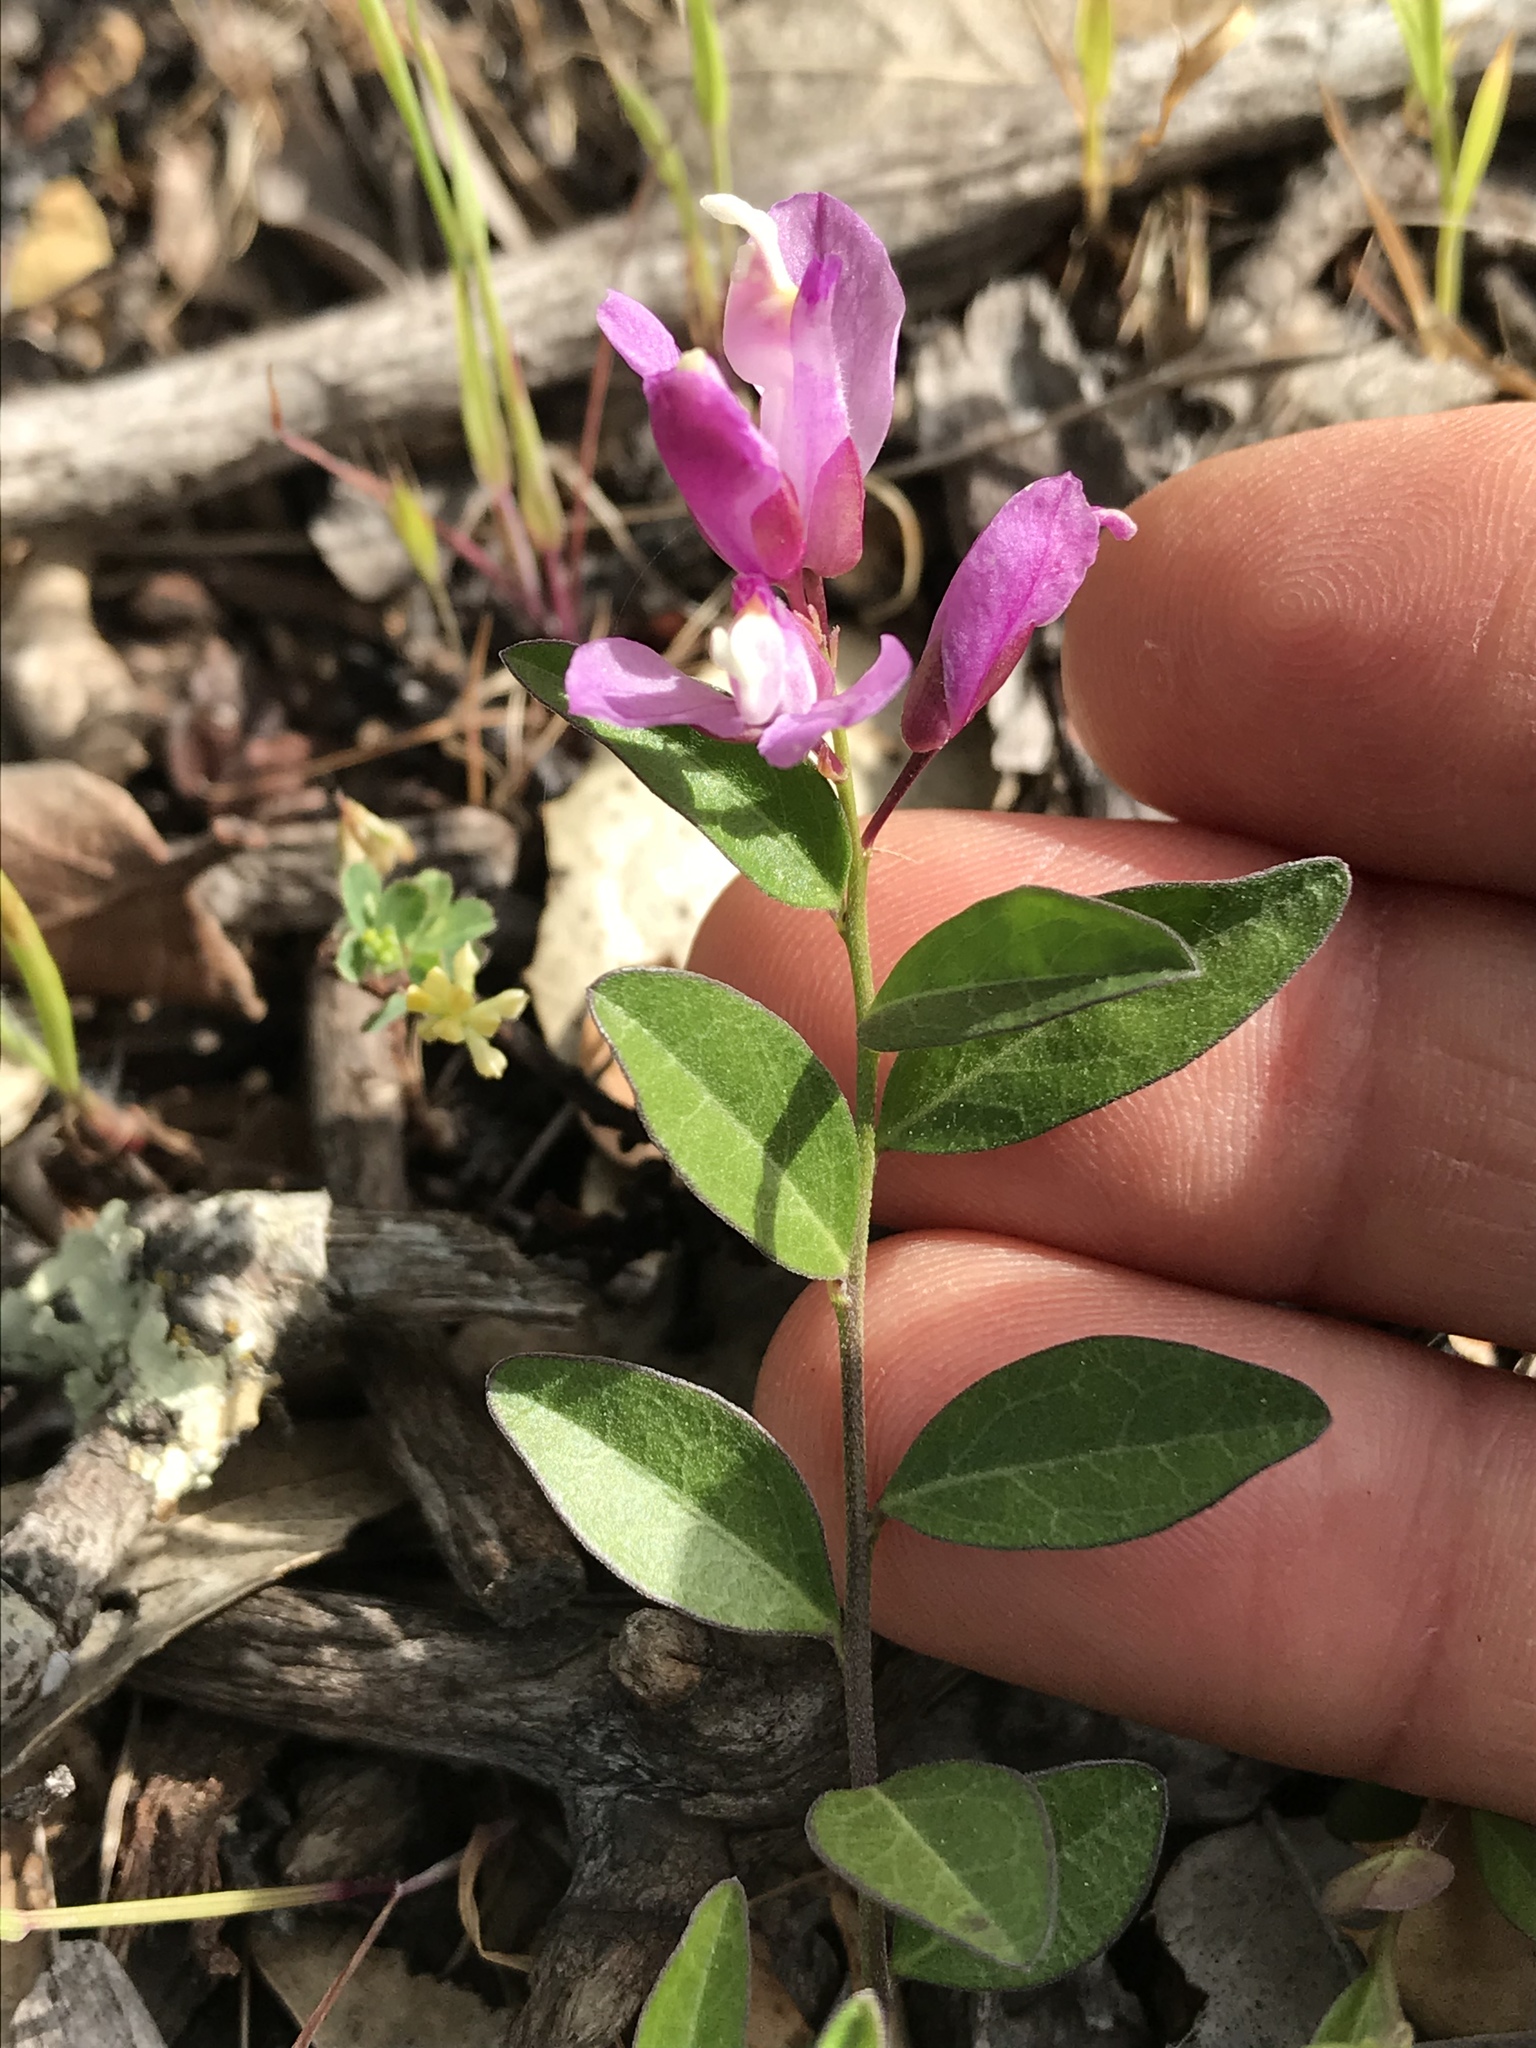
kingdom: Plantae
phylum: Tracheophyta
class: Magnoliopsida
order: Fabales
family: Polygalaceae
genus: Rhinotropis
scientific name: Rhinotropis californica
